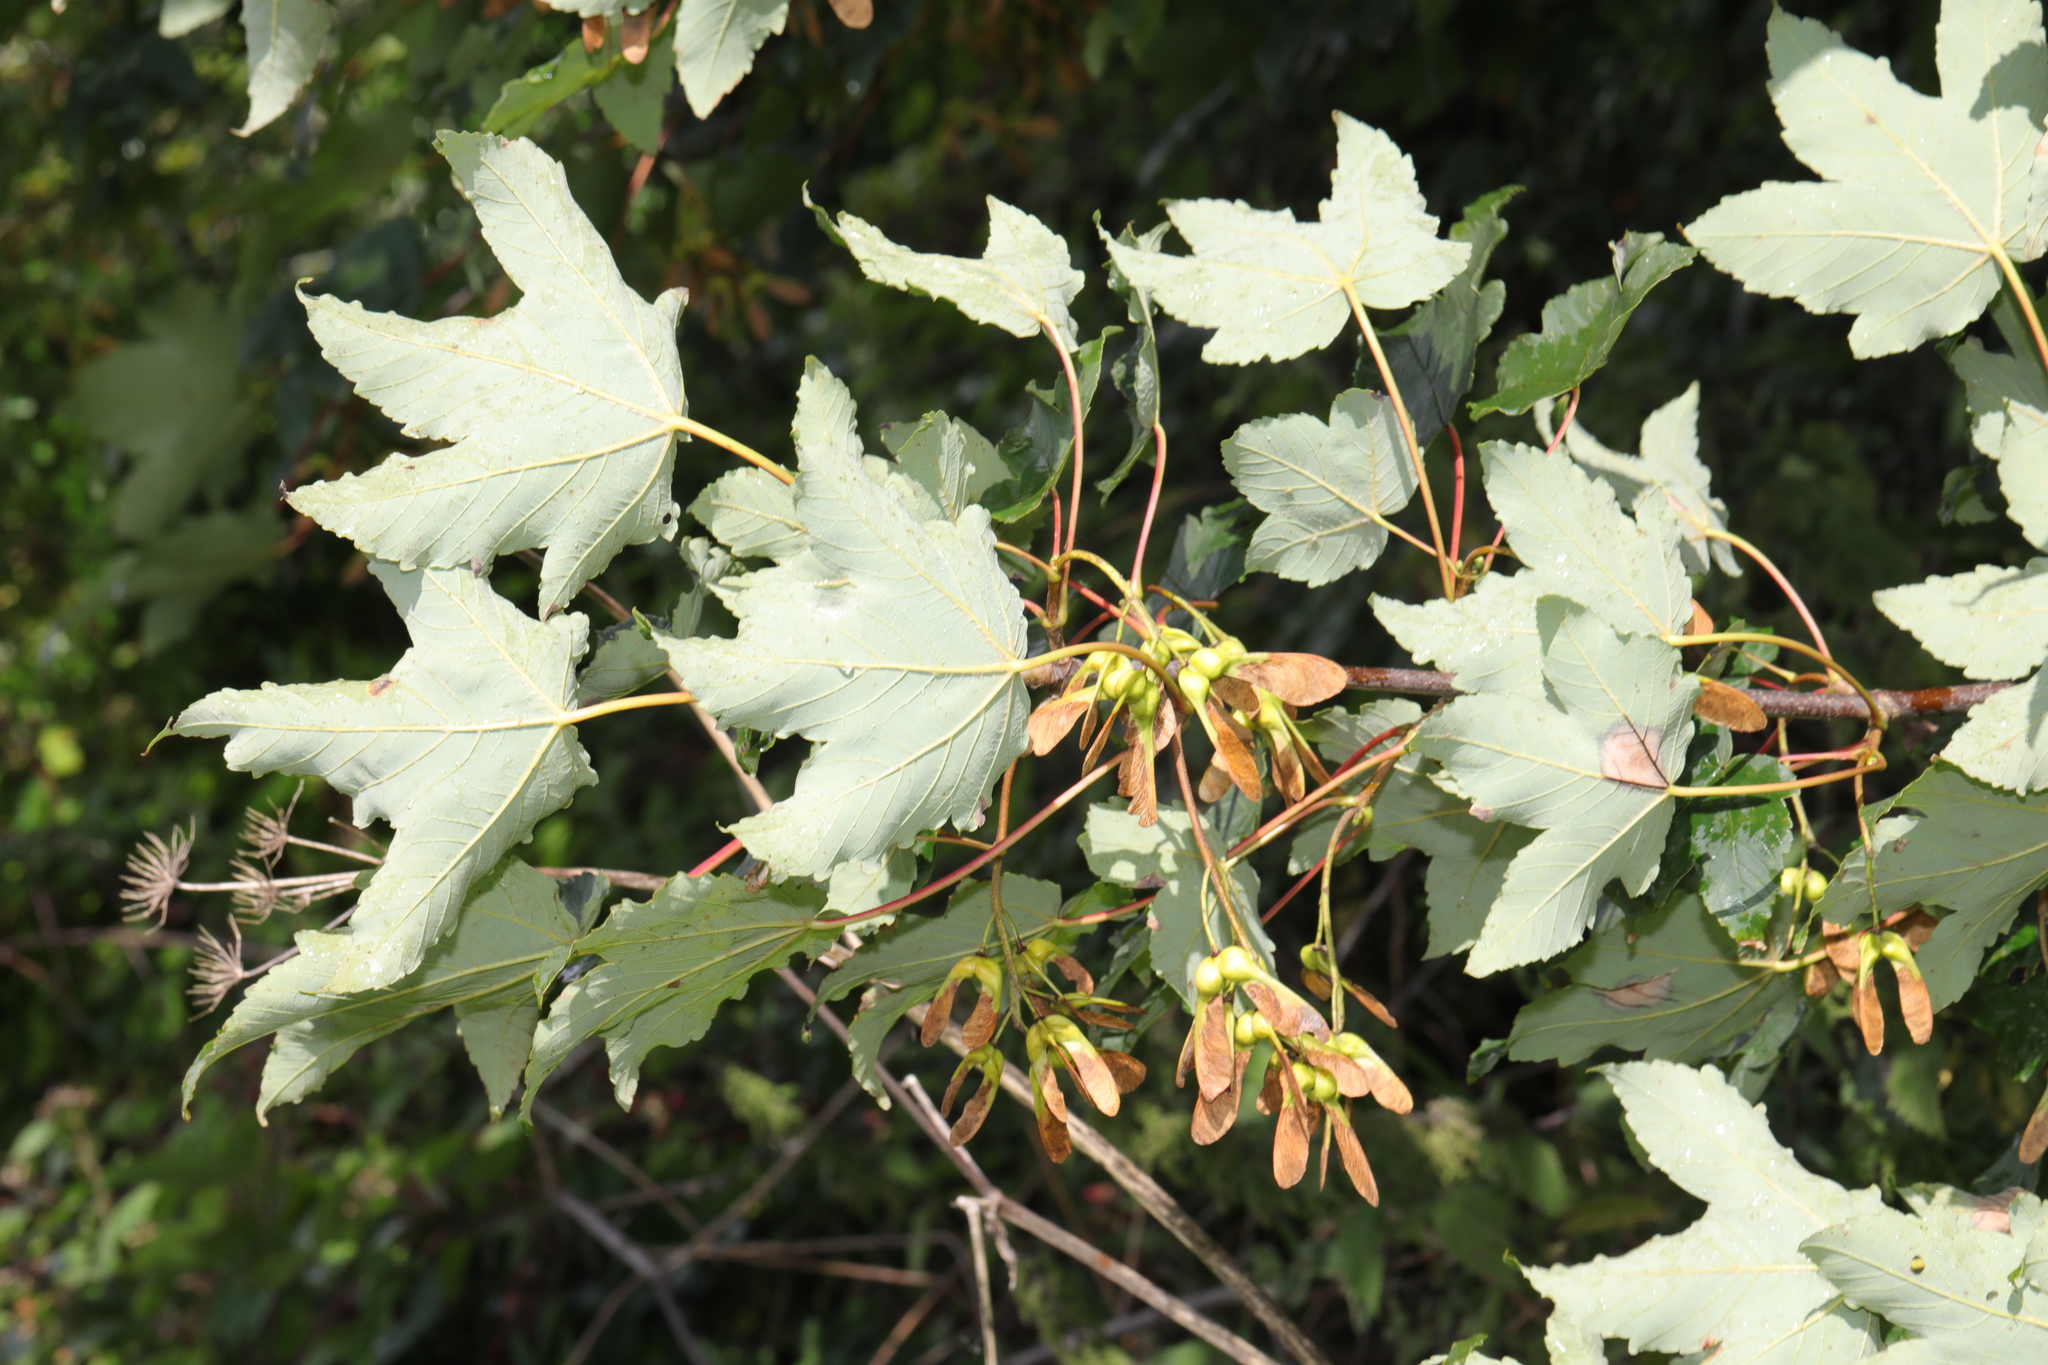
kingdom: Plantae
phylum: Tracheophyta
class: Magnoliopsida
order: Sapindales
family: Sapindaceae
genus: Acer
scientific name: Acer pseudoplatanus
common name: Sycamore
